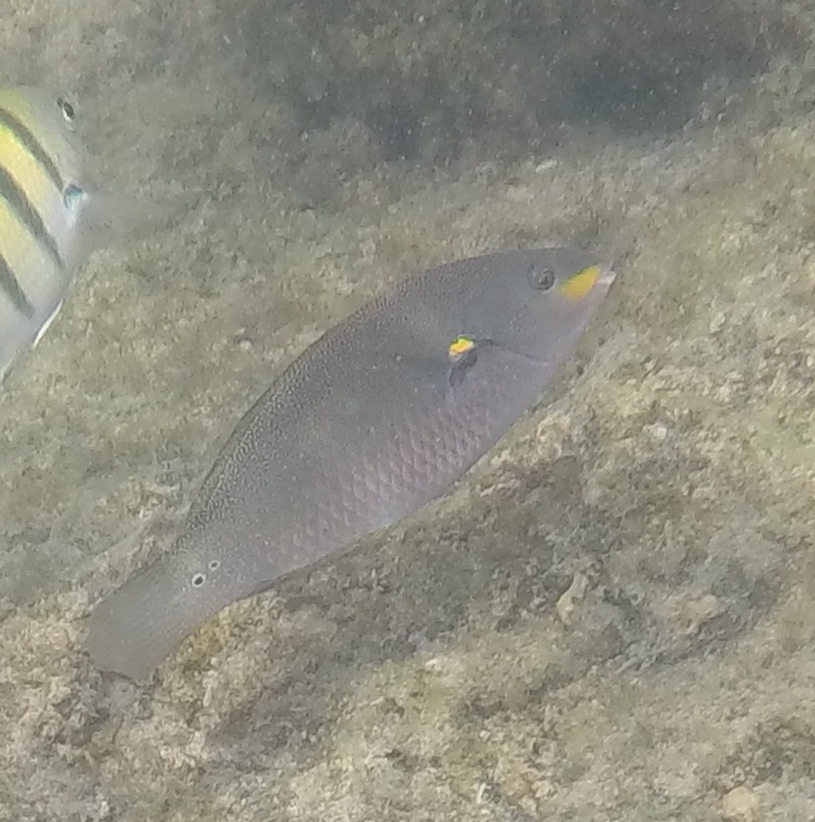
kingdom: Animalia
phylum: Chordata
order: Perciformes
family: Labridae
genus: Stethojulis
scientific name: Stethojulis balteata
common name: Belted wrasse
